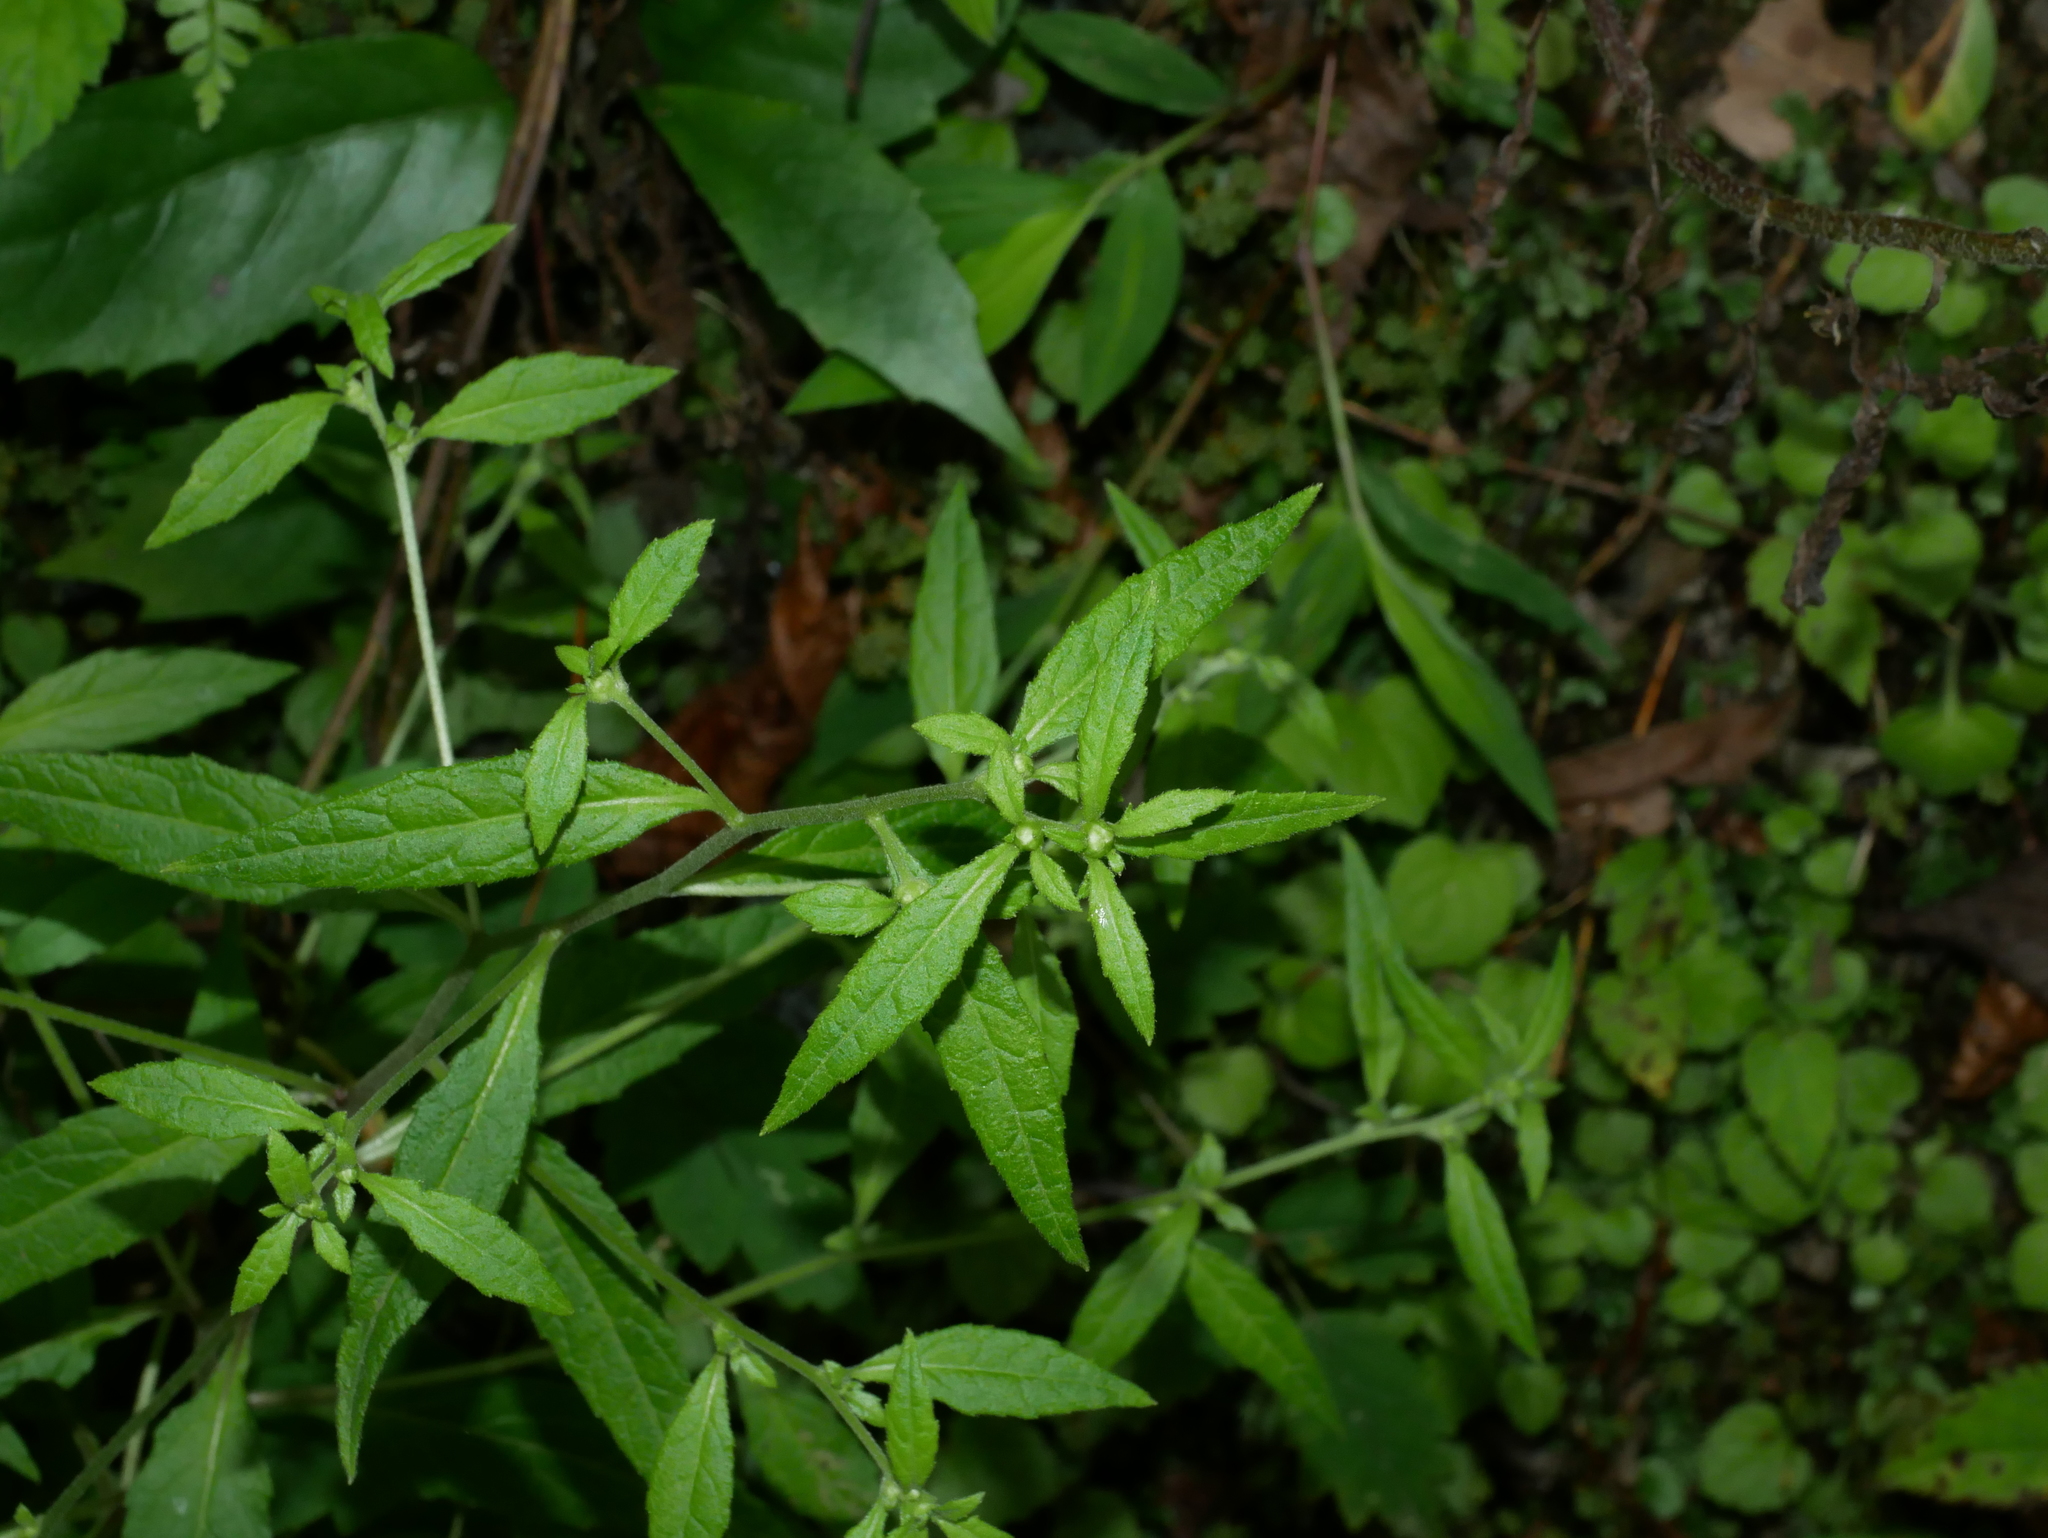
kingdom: Plantae
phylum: Tracheophyta
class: Magnoliopsida
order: Asterales
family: Asteraceae
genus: Carpesium
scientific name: Carpesium minus
